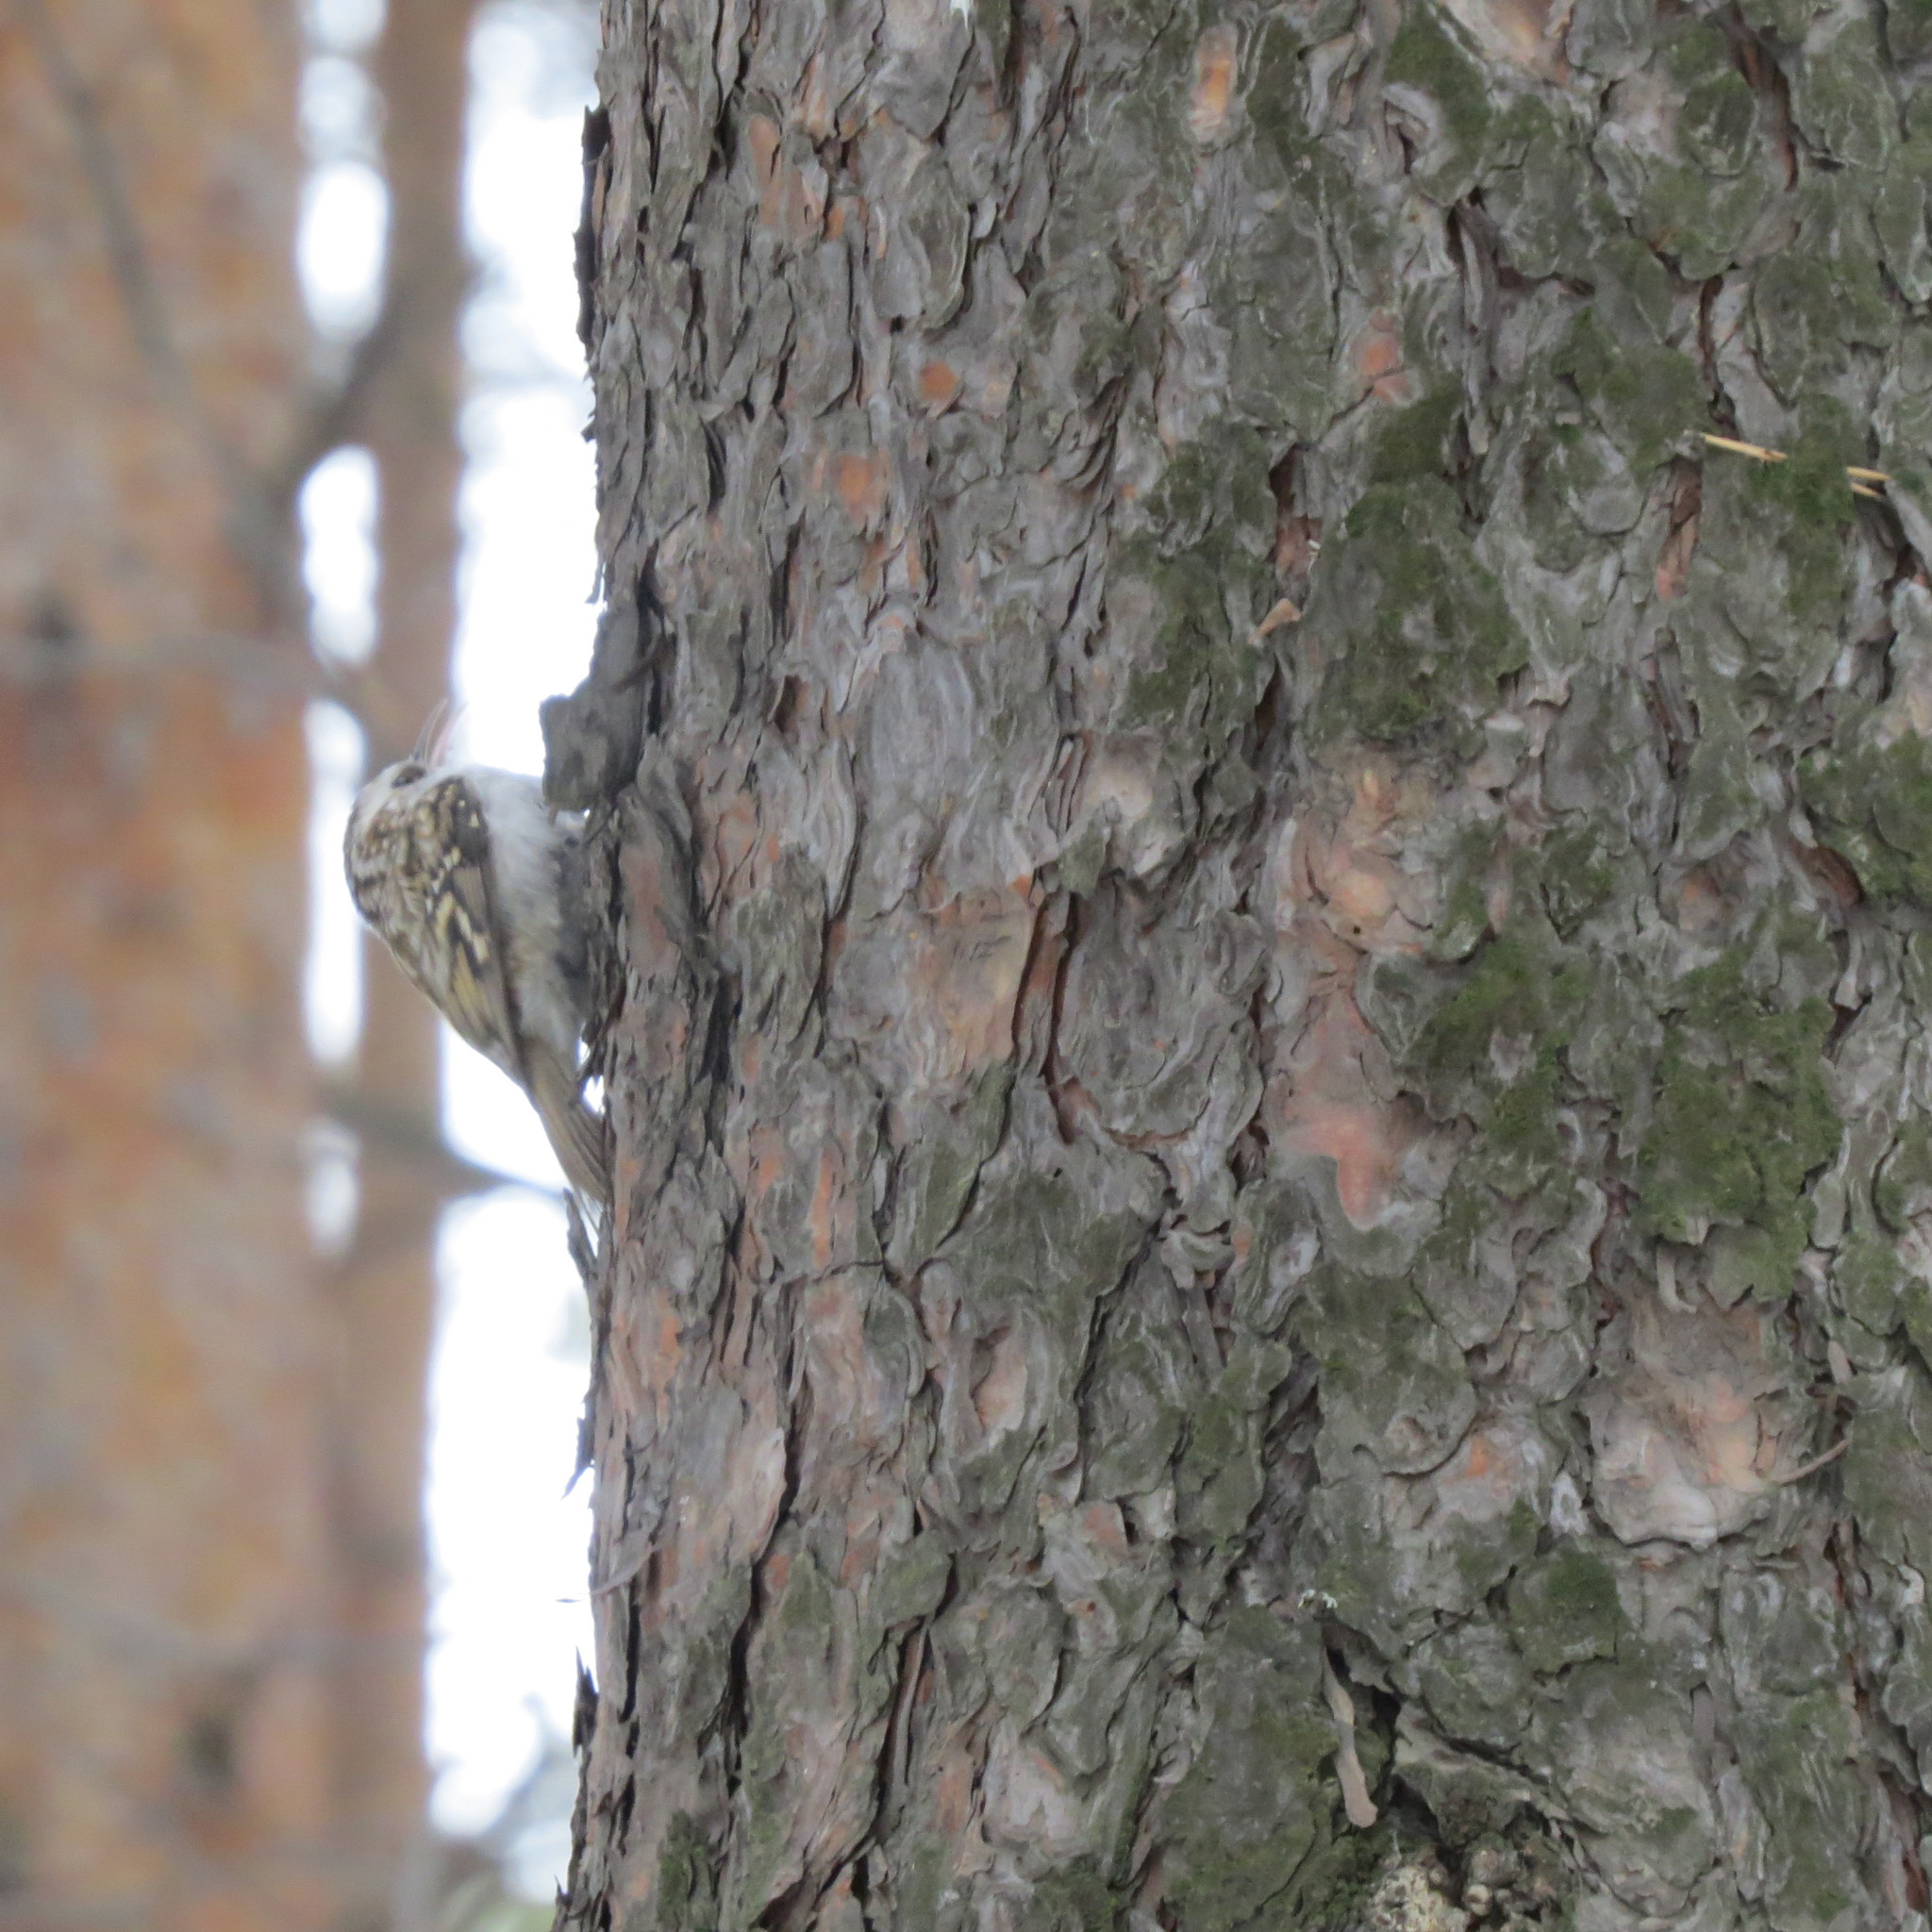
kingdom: Animalia
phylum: Chordata
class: Aves
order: Passeriformes
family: Certhiidae
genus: Certhia
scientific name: Certhia familiaris
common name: Eurasian treecreeper
